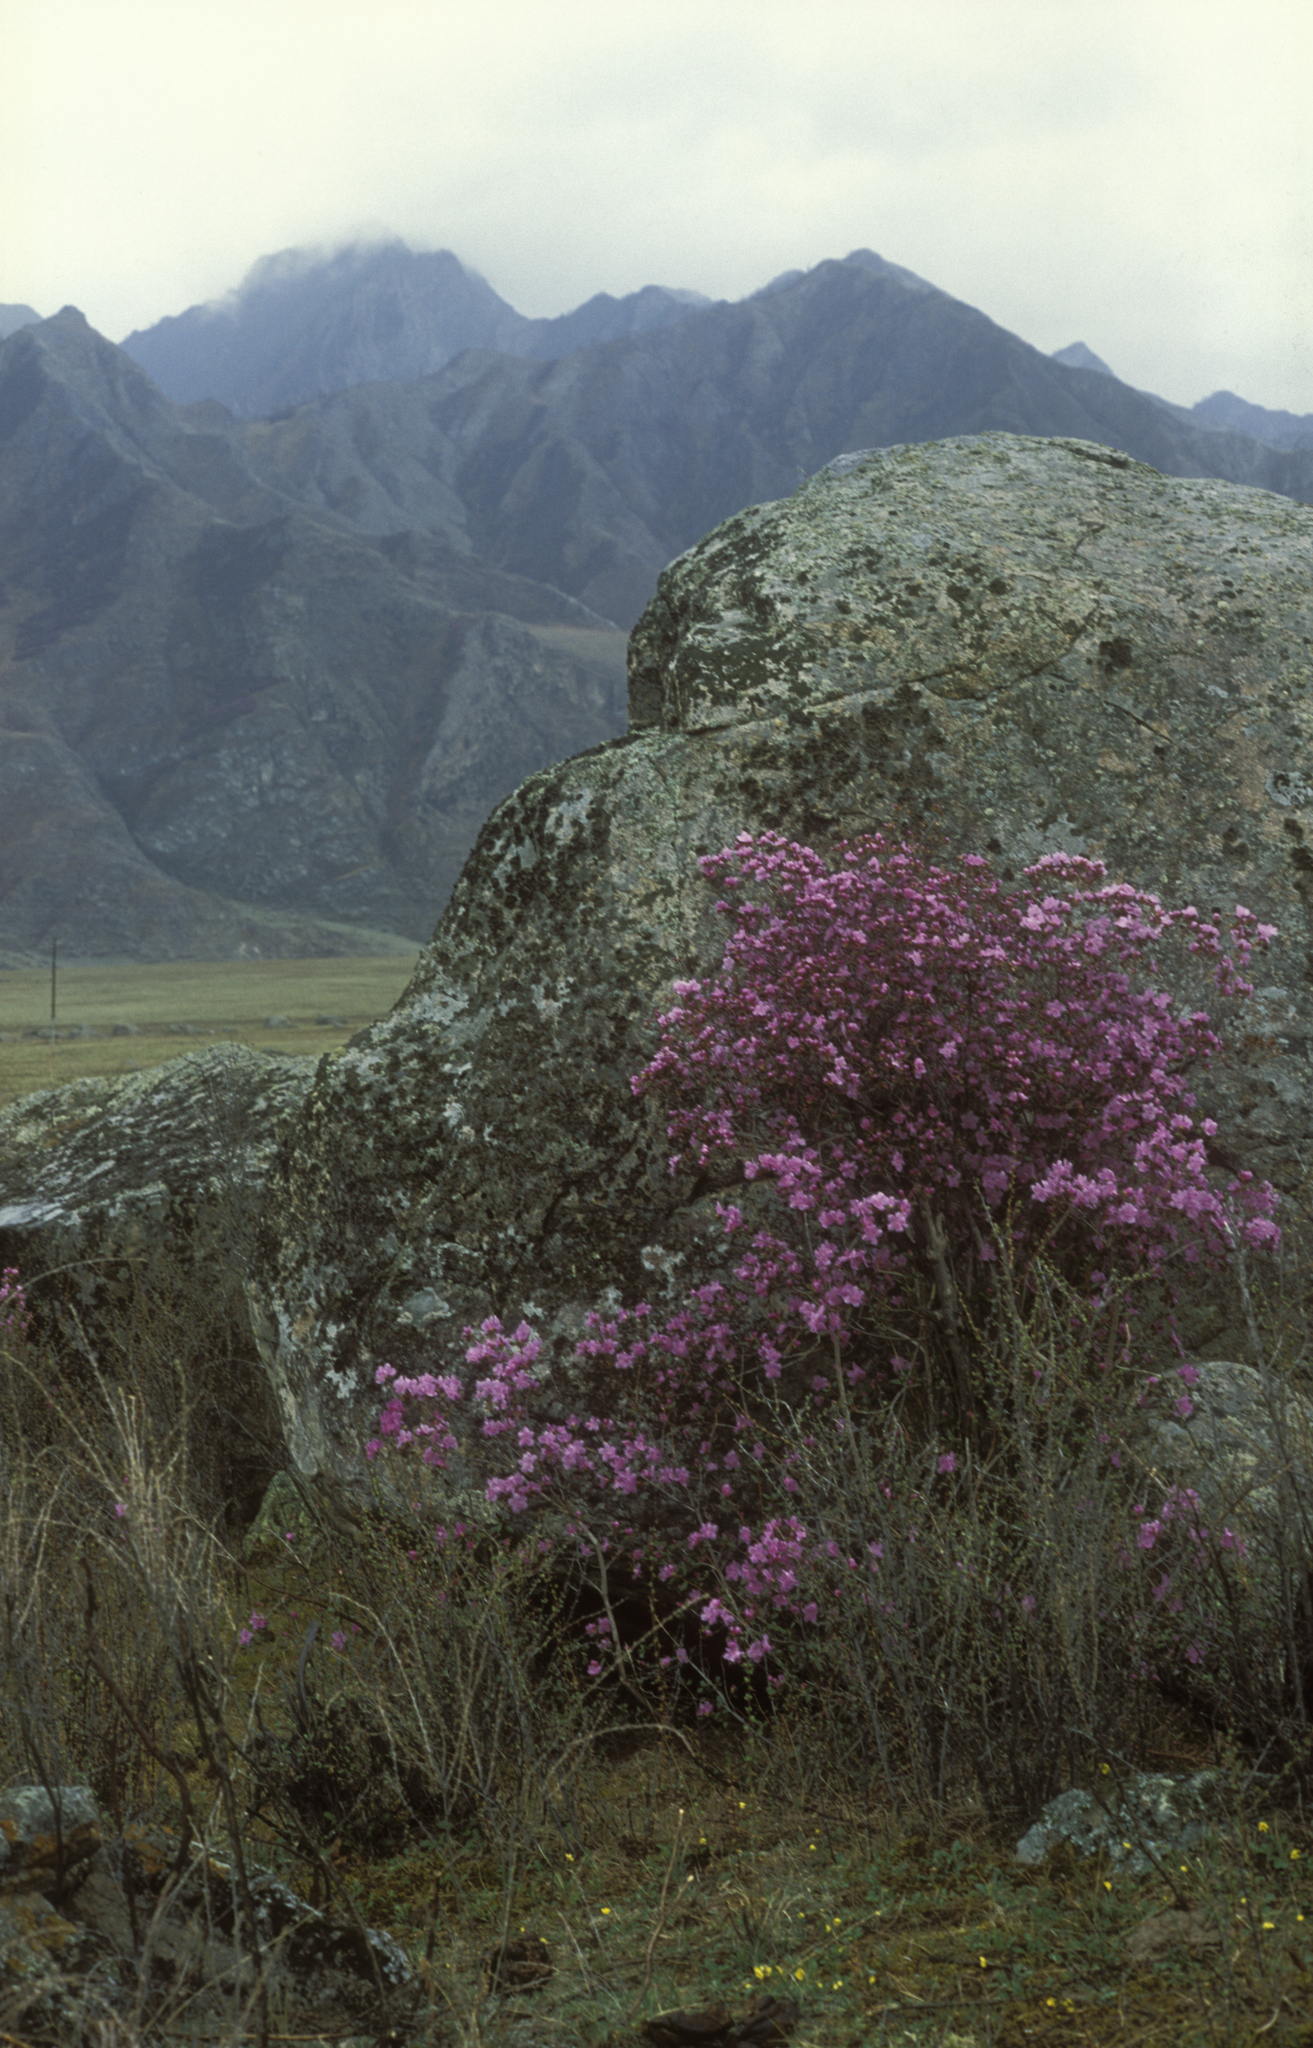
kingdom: Plantae
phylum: Tracheophyta
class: Magnoliopsida
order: Ericales
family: Ericaceae
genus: Rhododendron
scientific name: Rhododendron dauricum
